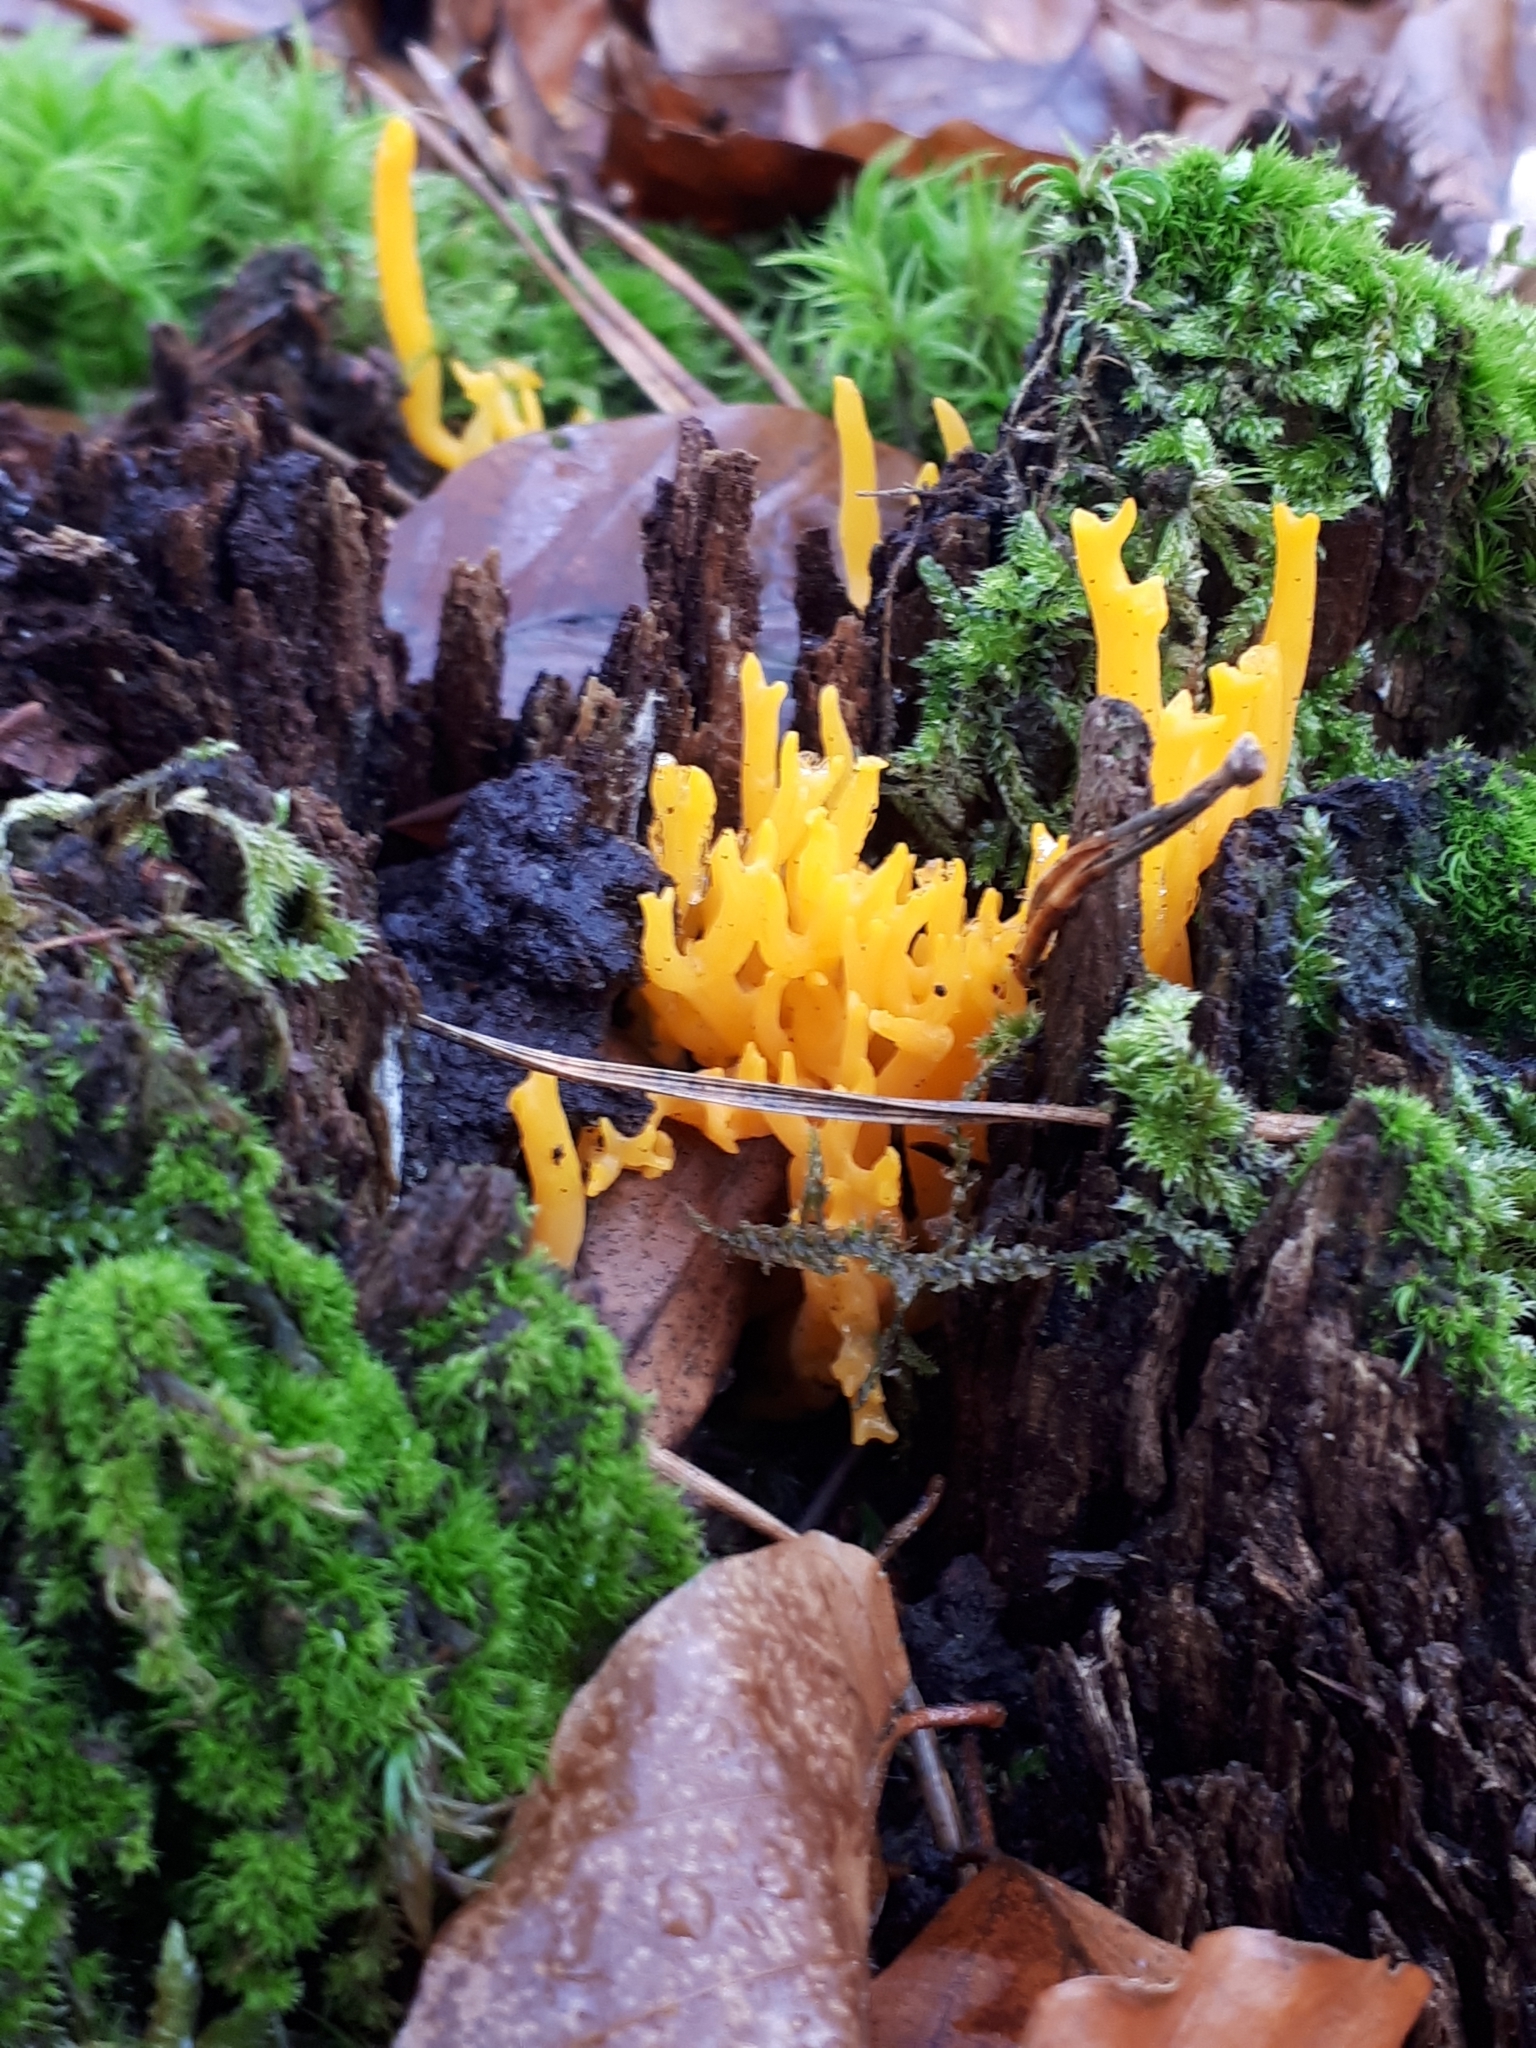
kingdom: Fungi
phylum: Basidiomycota
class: Dacrymycetes
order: Dacrymycetales
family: Dacrymycetaceae
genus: Calocera
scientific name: Calocera viscosa
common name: Yellow stagshorn
